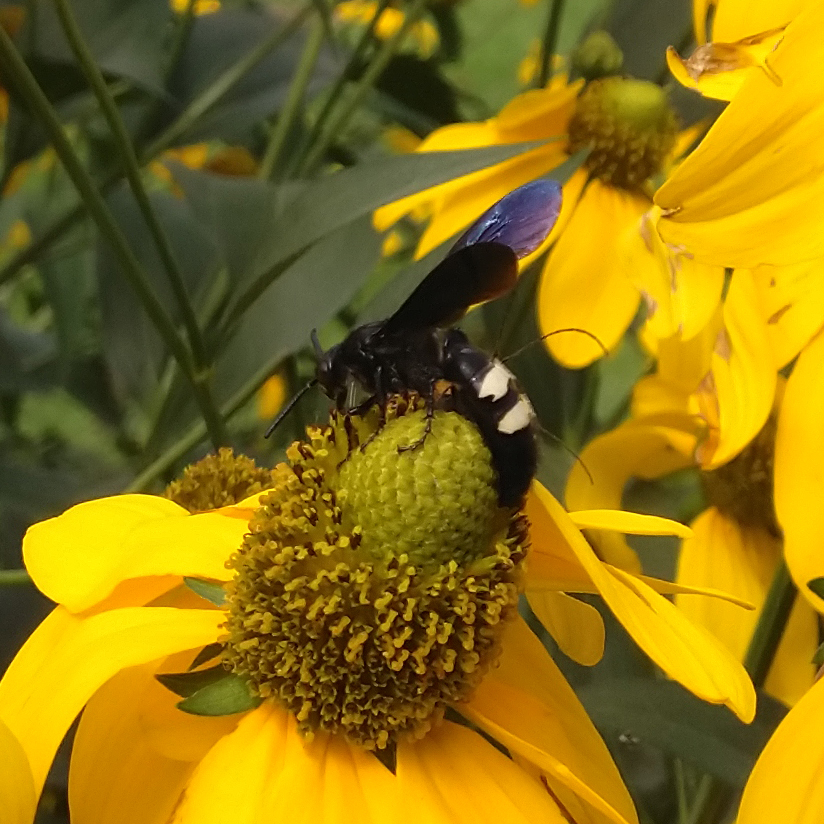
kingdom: Animalia
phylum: Arthropoda
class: Insecta
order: Hymenoptera
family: Scoliidae
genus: Scolia
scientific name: Scolia bicincta
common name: Double-banded scoliid wasp
